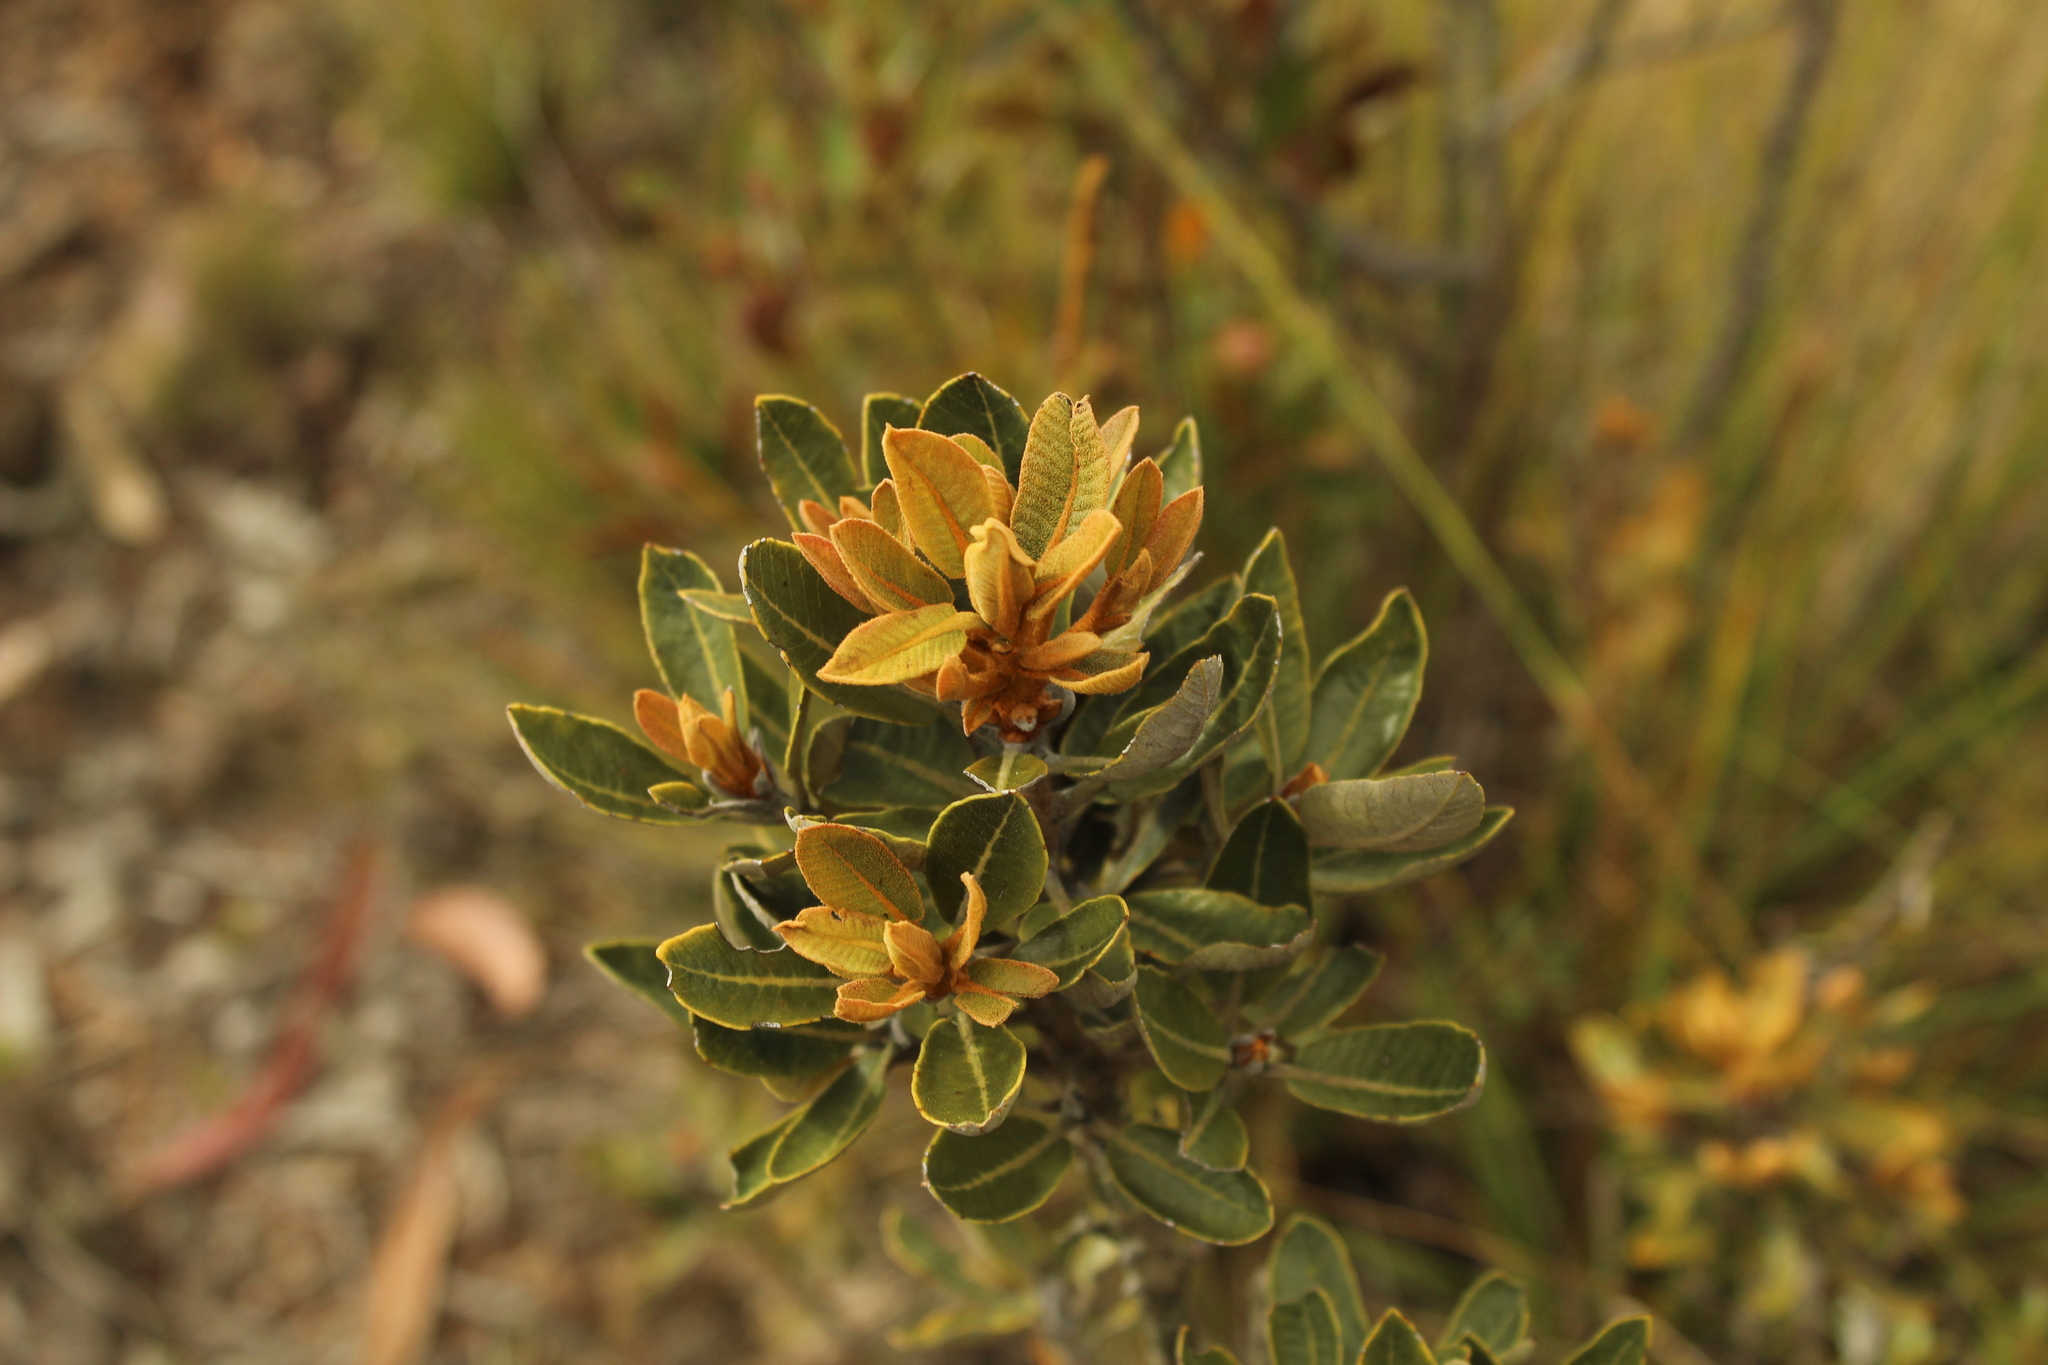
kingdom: Plantae
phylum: Tracheophyta
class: Magnoliopsida
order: Ericales
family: Clethraceae
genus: Clethra
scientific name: Clethra fimbriata
